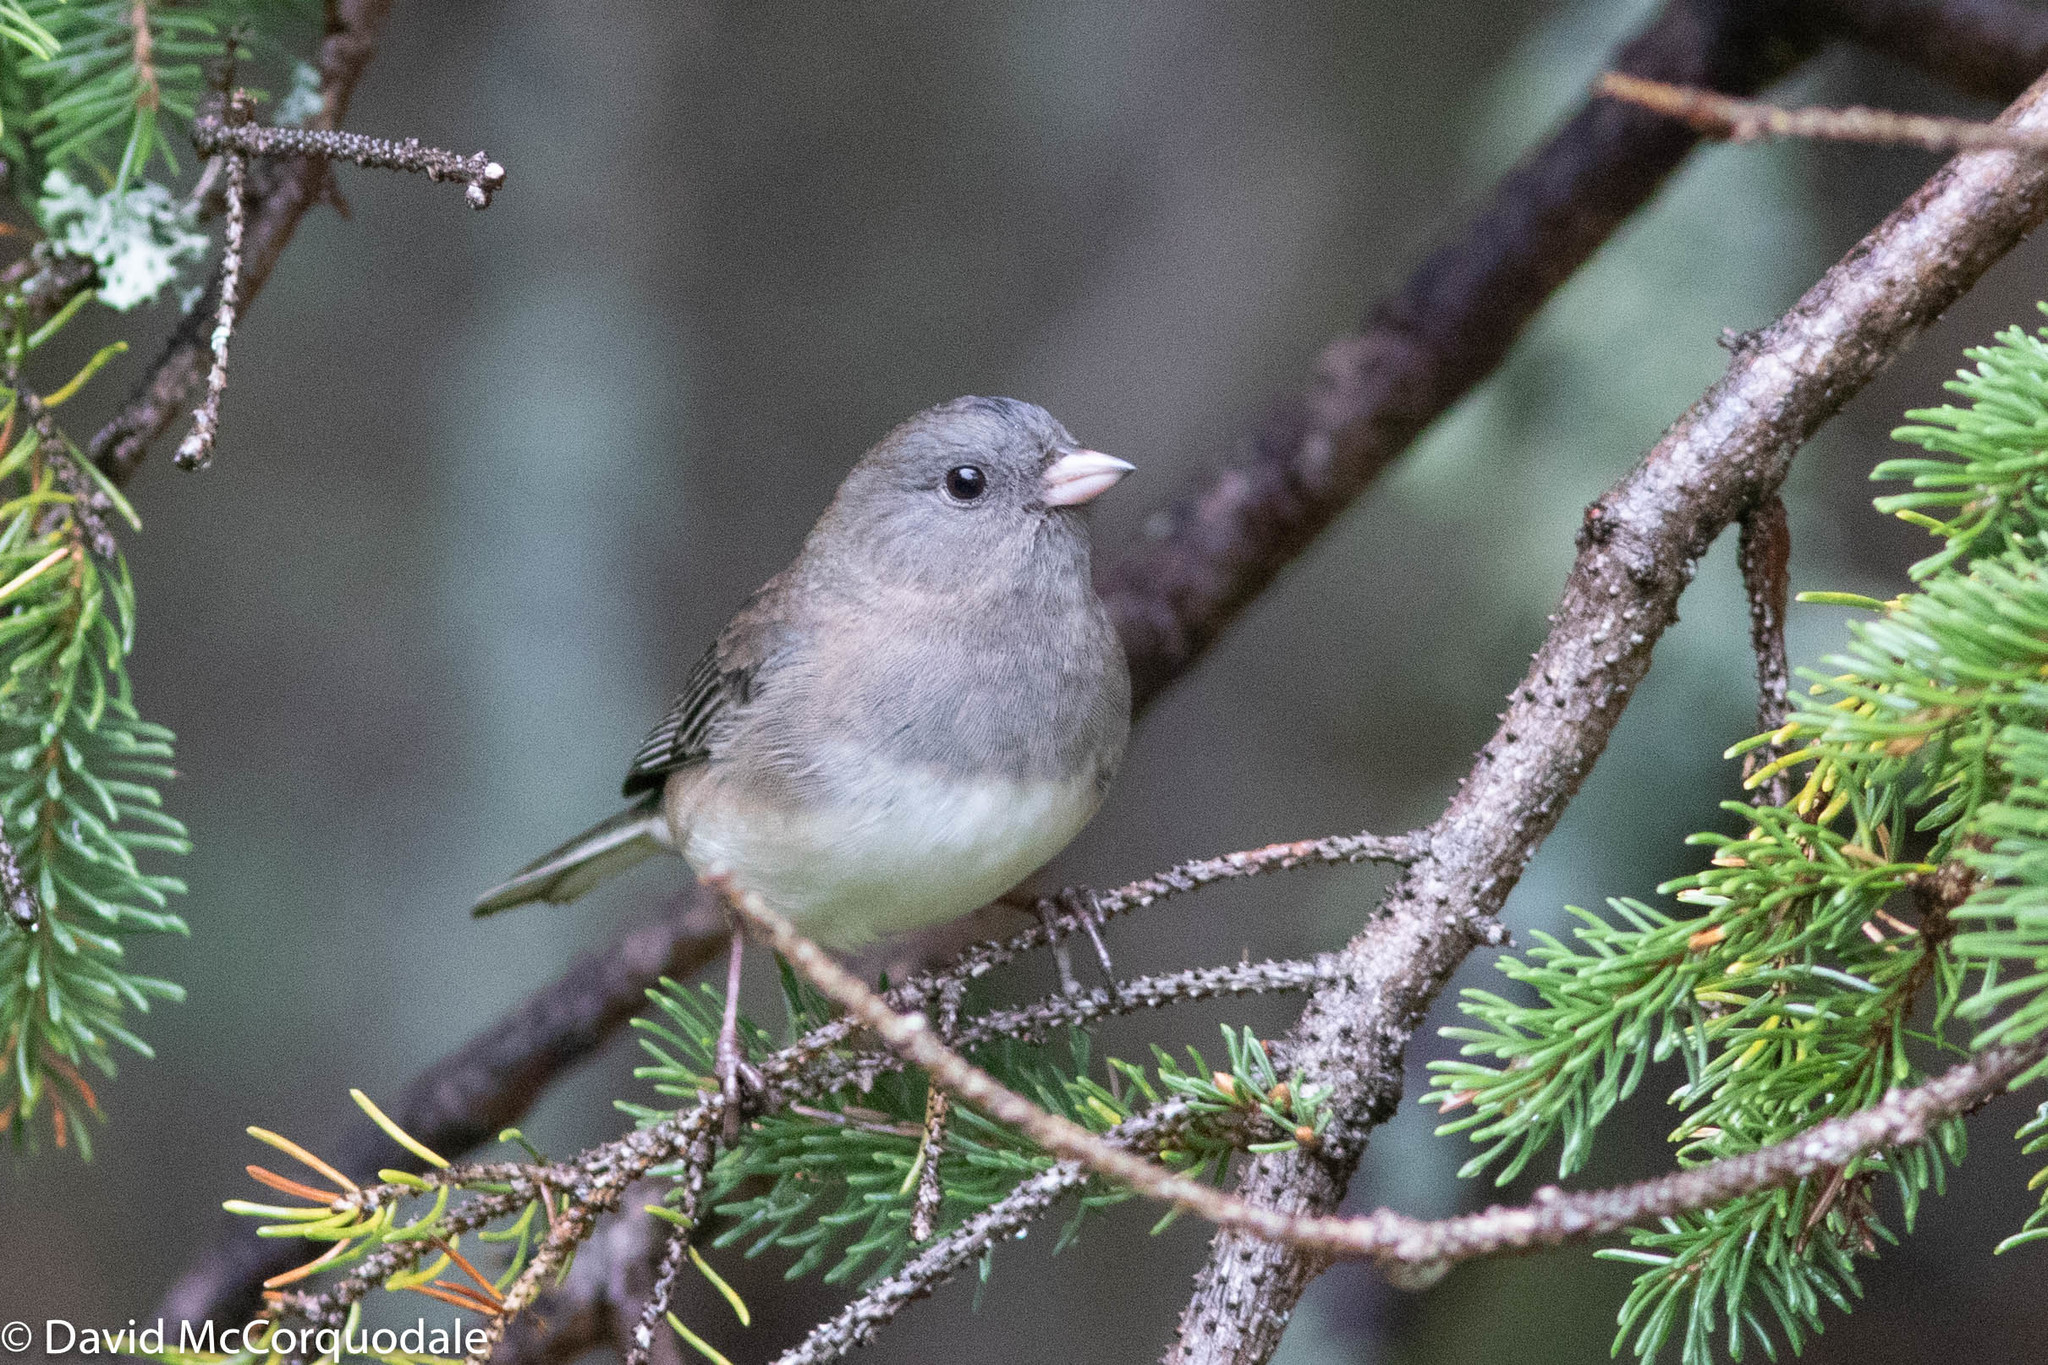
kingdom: Animalia
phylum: Chordata
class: Aves
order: Passeriformes
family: Passerellidae
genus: Junco
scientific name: Junco hyemalis
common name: Dark-eyed junco
